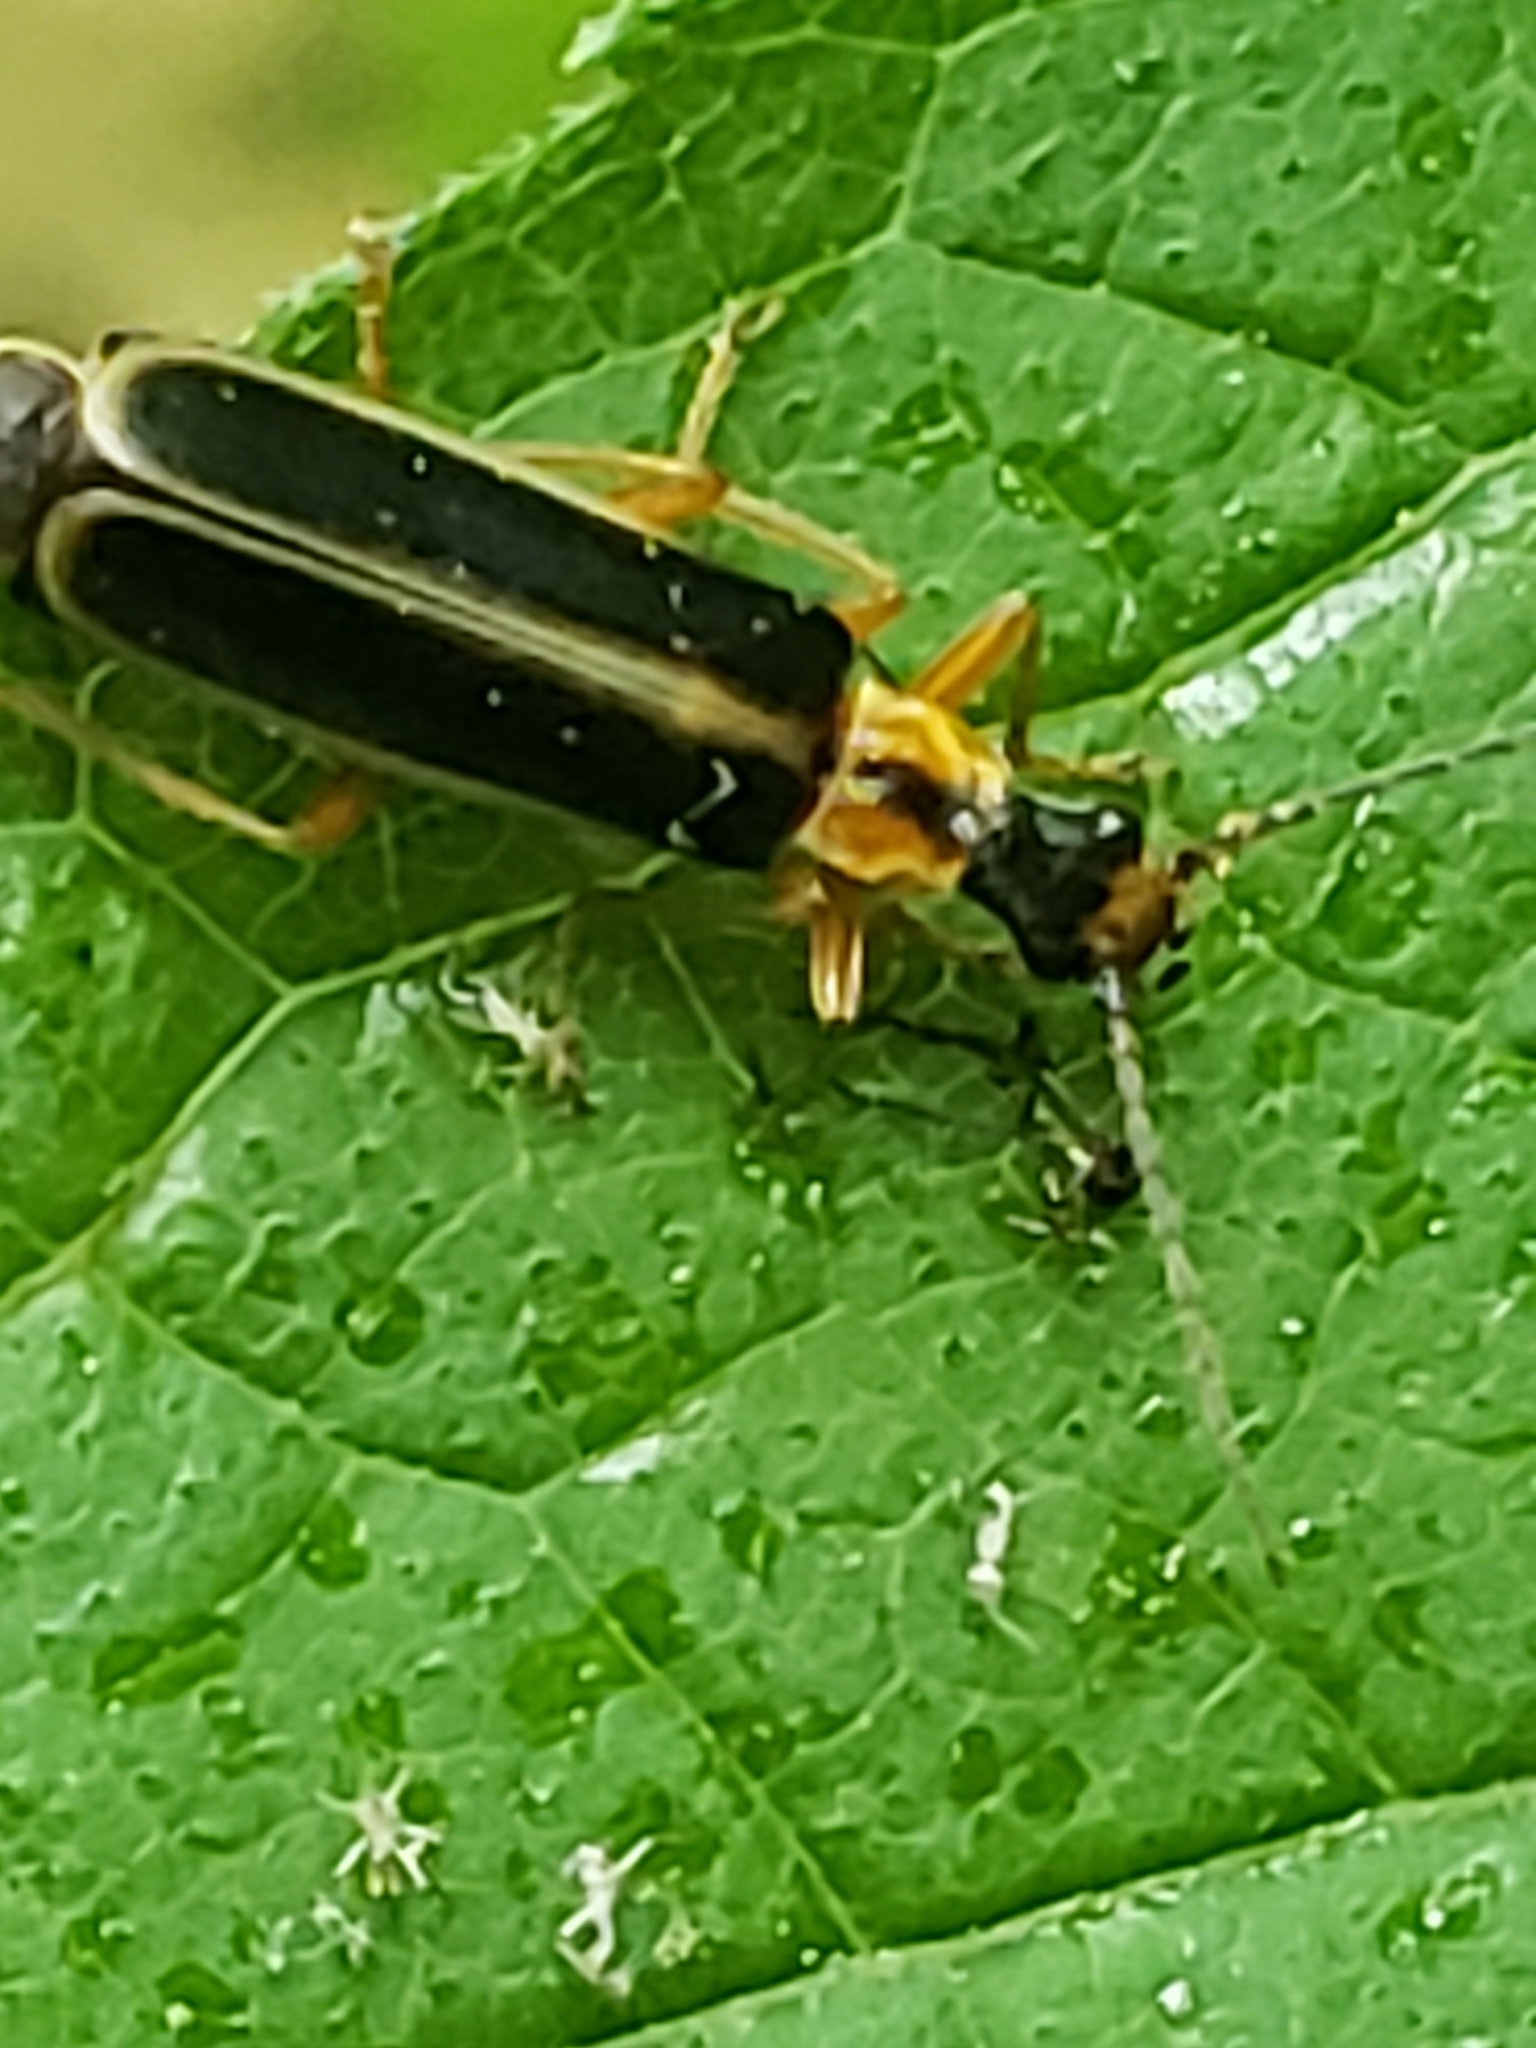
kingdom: Animalia
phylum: Arthropoda
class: Insecta
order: Coleoptera
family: Cantharidae
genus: Podabrus
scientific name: Podabrus basilaris
